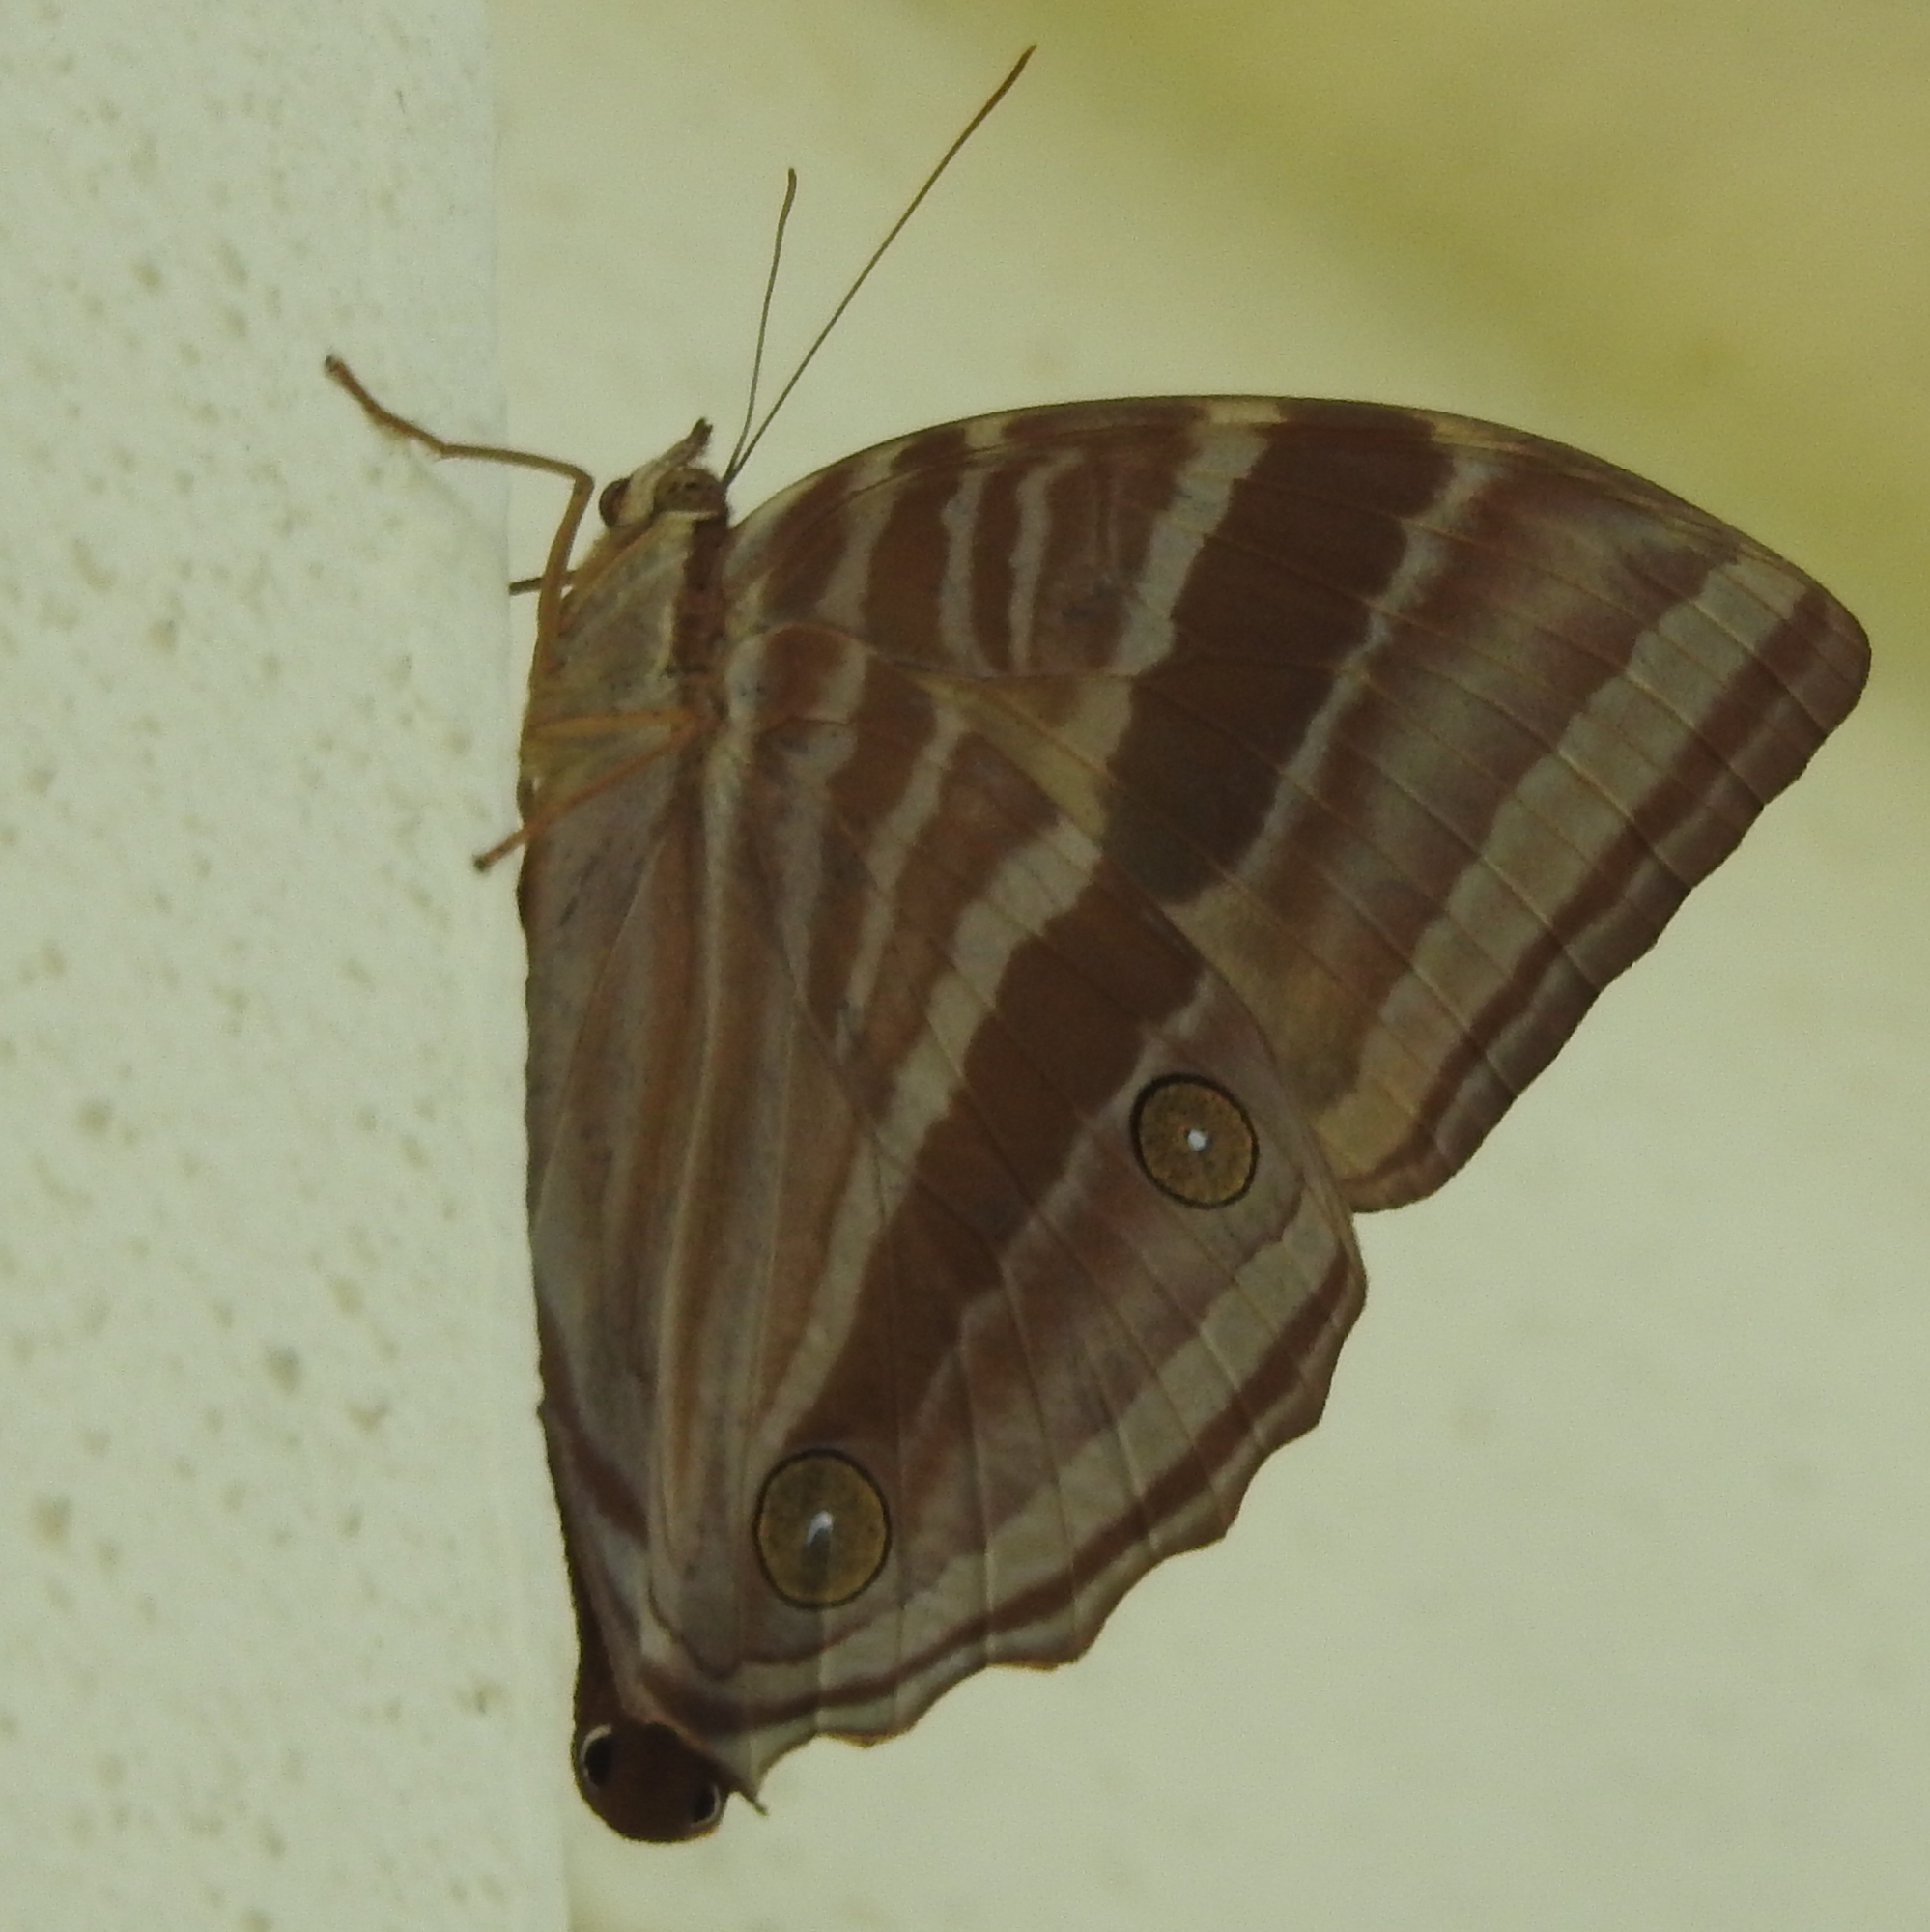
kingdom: Animalia
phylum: Arthropoda
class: Insecta
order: Lepidoptera
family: Nymphalidae
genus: Amathusia
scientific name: Amathusia phidippus
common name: Palm king
